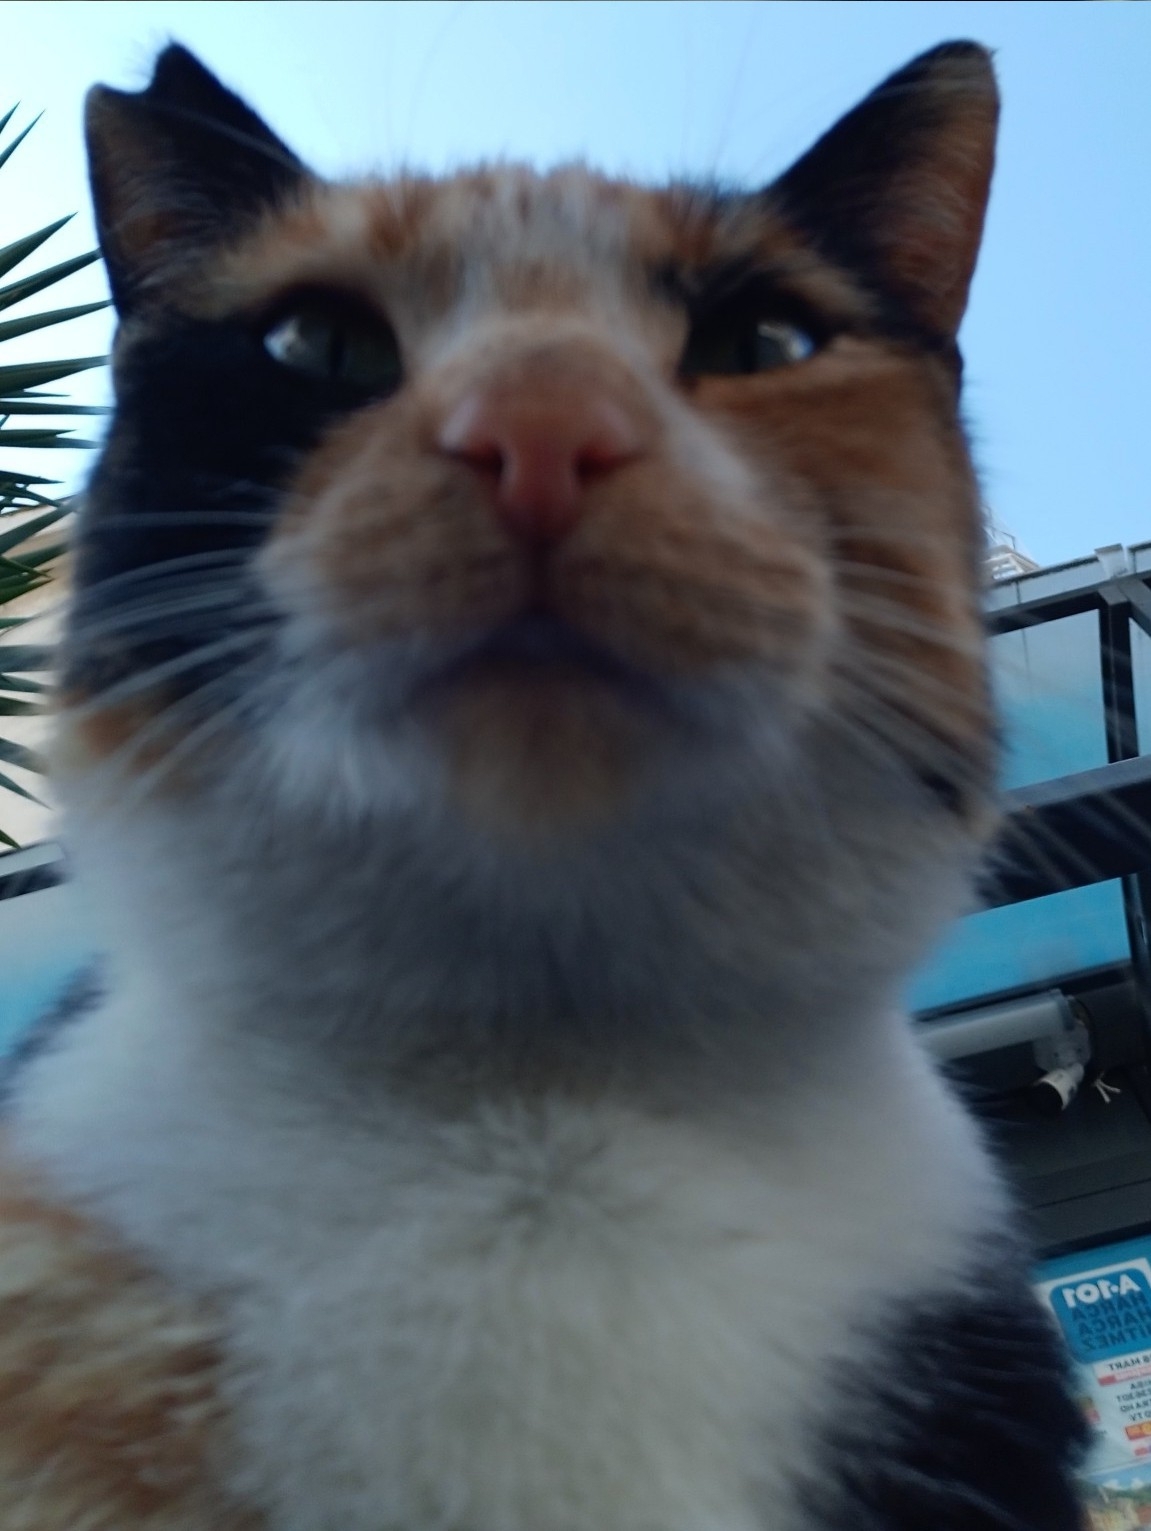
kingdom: Animalia
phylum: Chordata
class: Mammalia
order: Carnivora
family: Felidae
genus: Felis
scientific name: Felis catus
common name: Domestic cat
